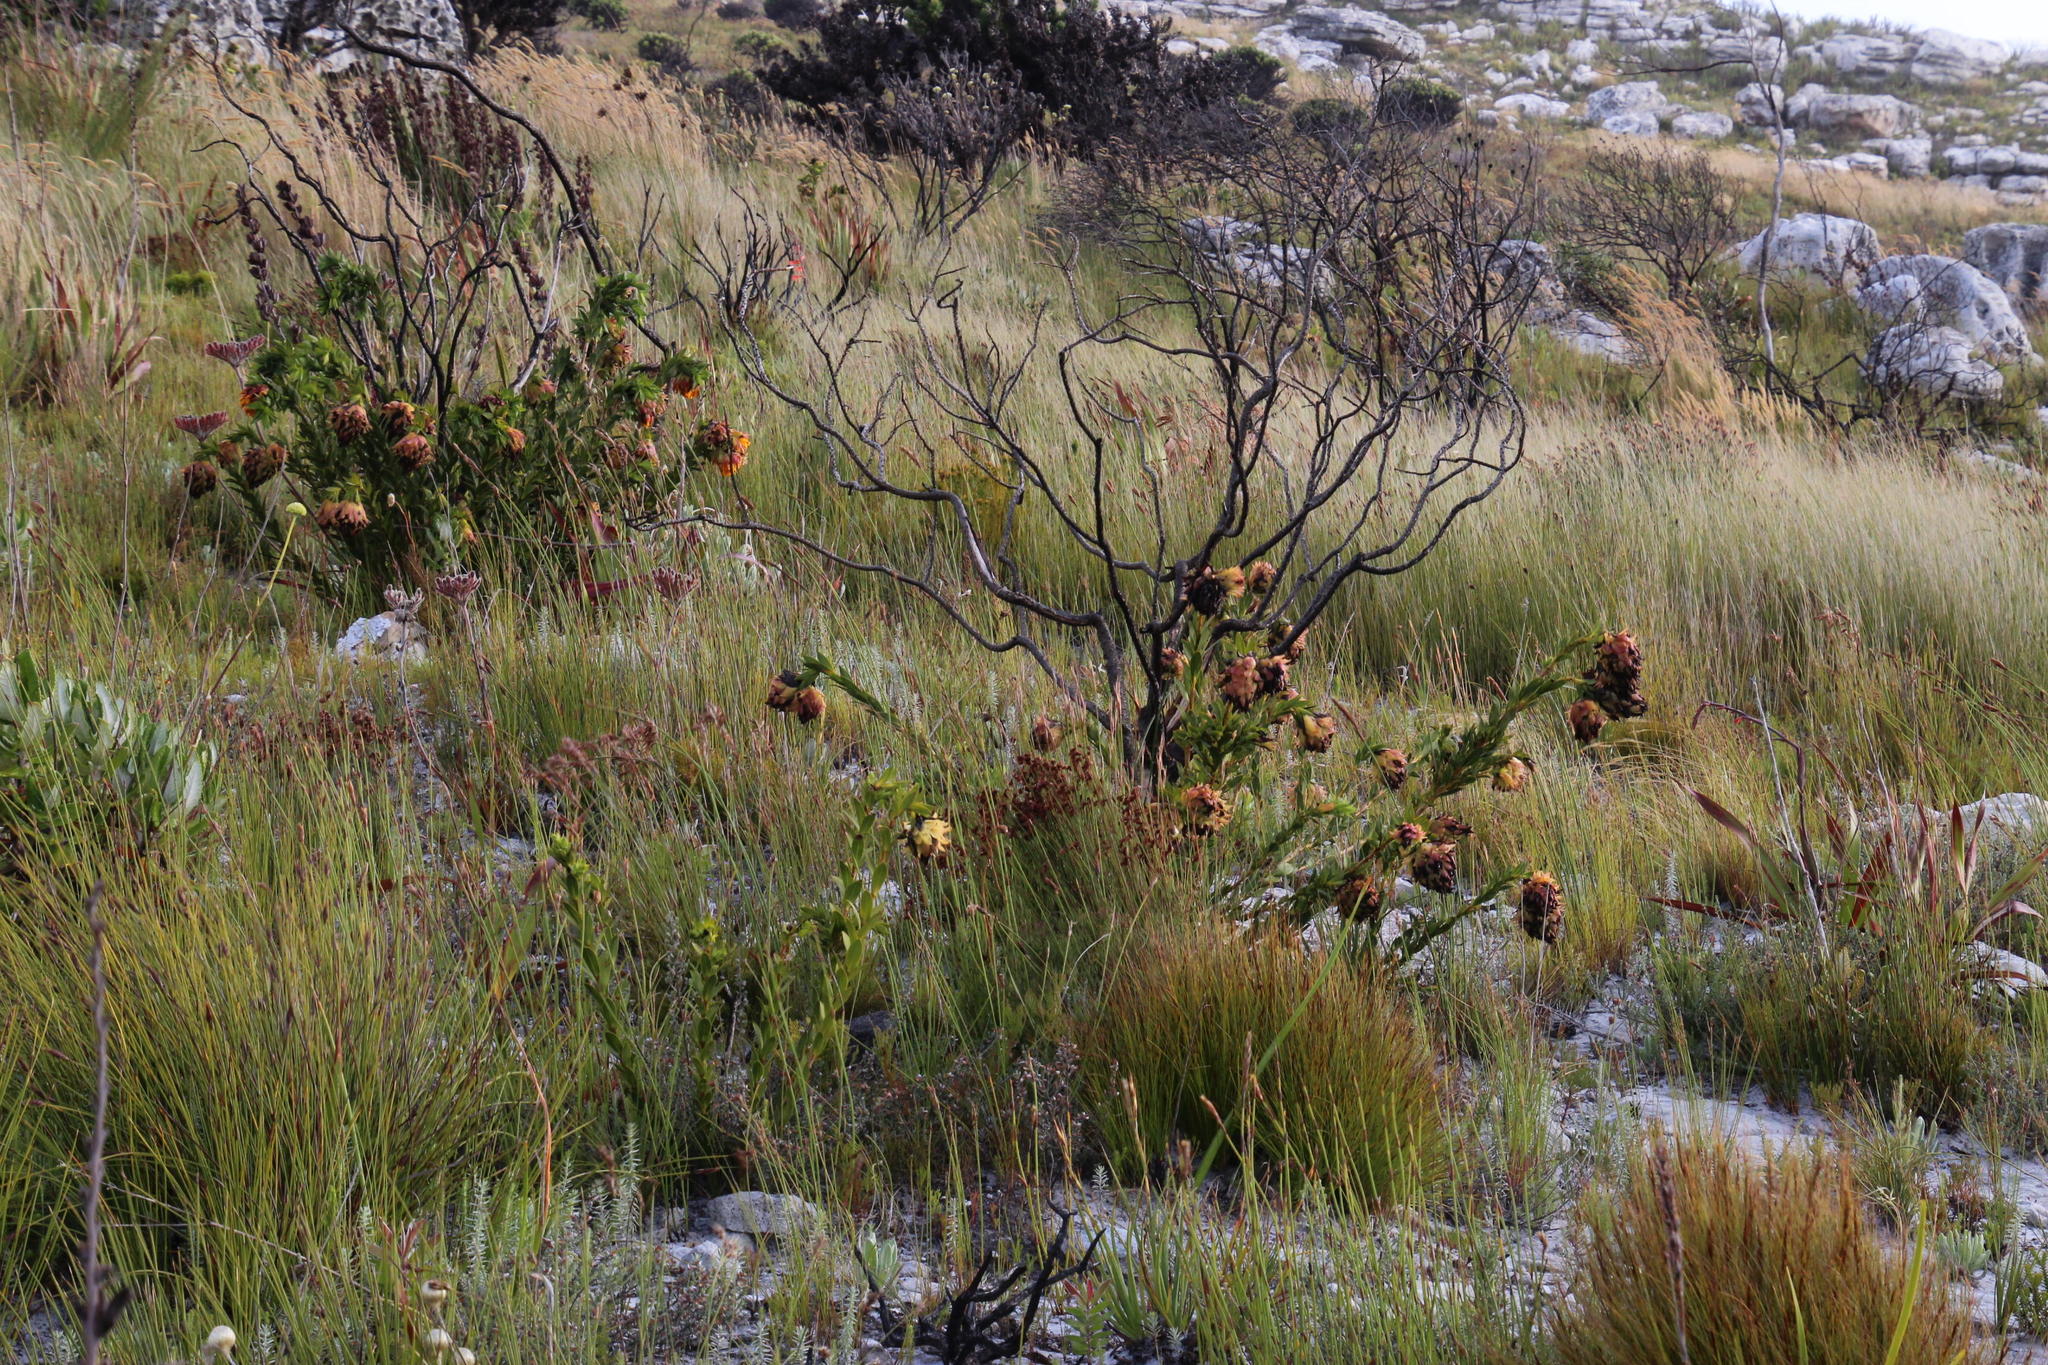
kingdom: Plantae
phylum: Tracheophyta
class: Magnoliopsida
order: Fabales
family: Fabaceae
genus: Liparia
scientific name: Liparia splendens
